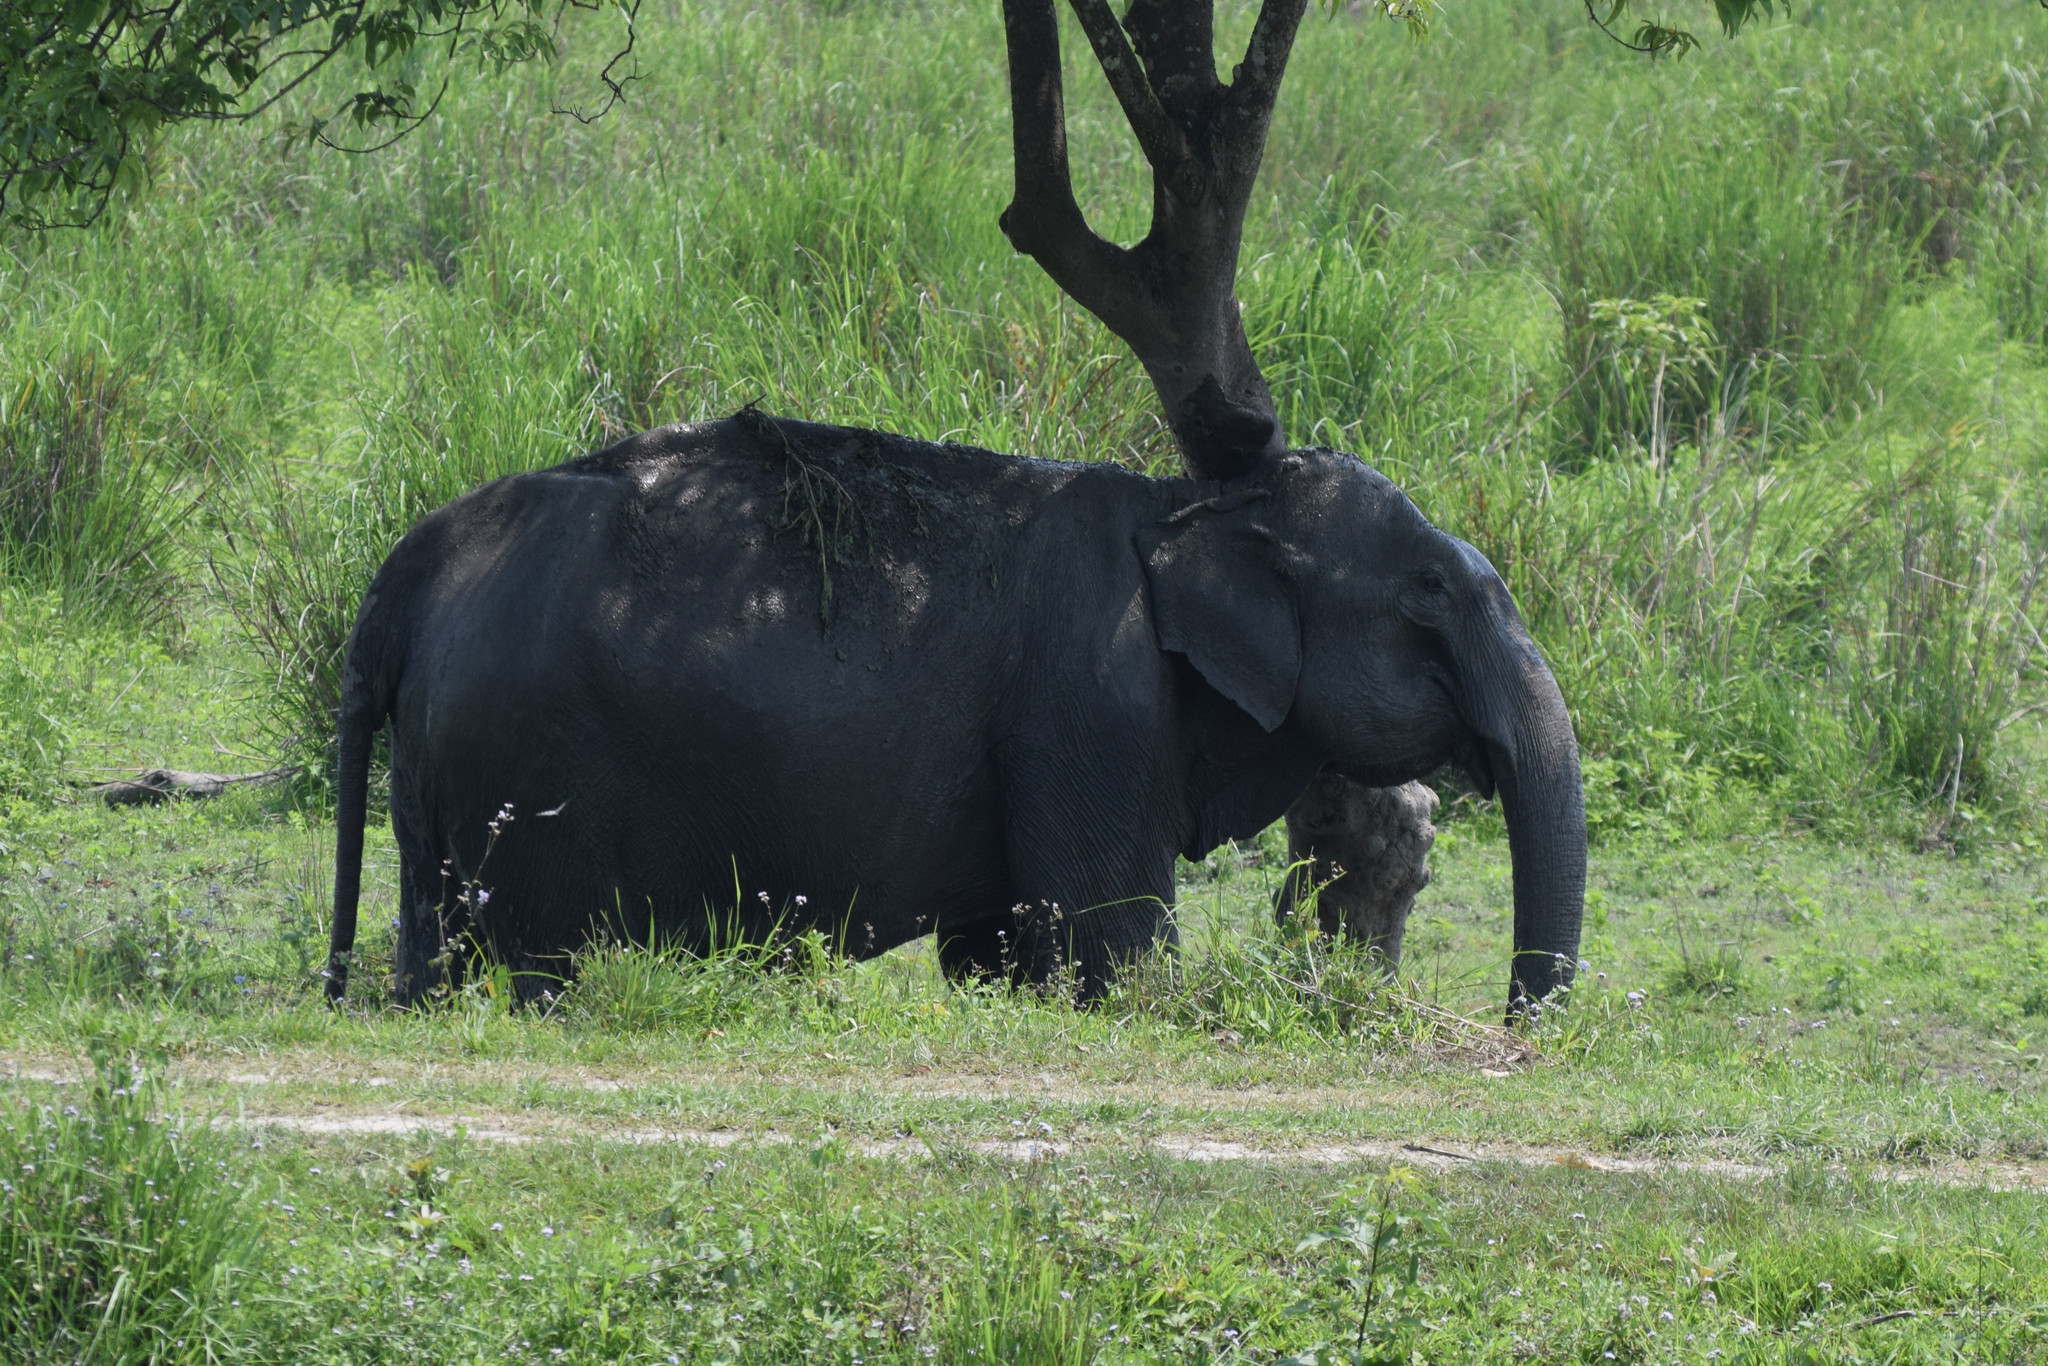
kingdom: Animalia
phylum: Chordata
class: Mammalia
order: Proboscidea
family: Elephantidae
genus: Elephas
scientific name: Elephas maximus
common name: Asian elephant
